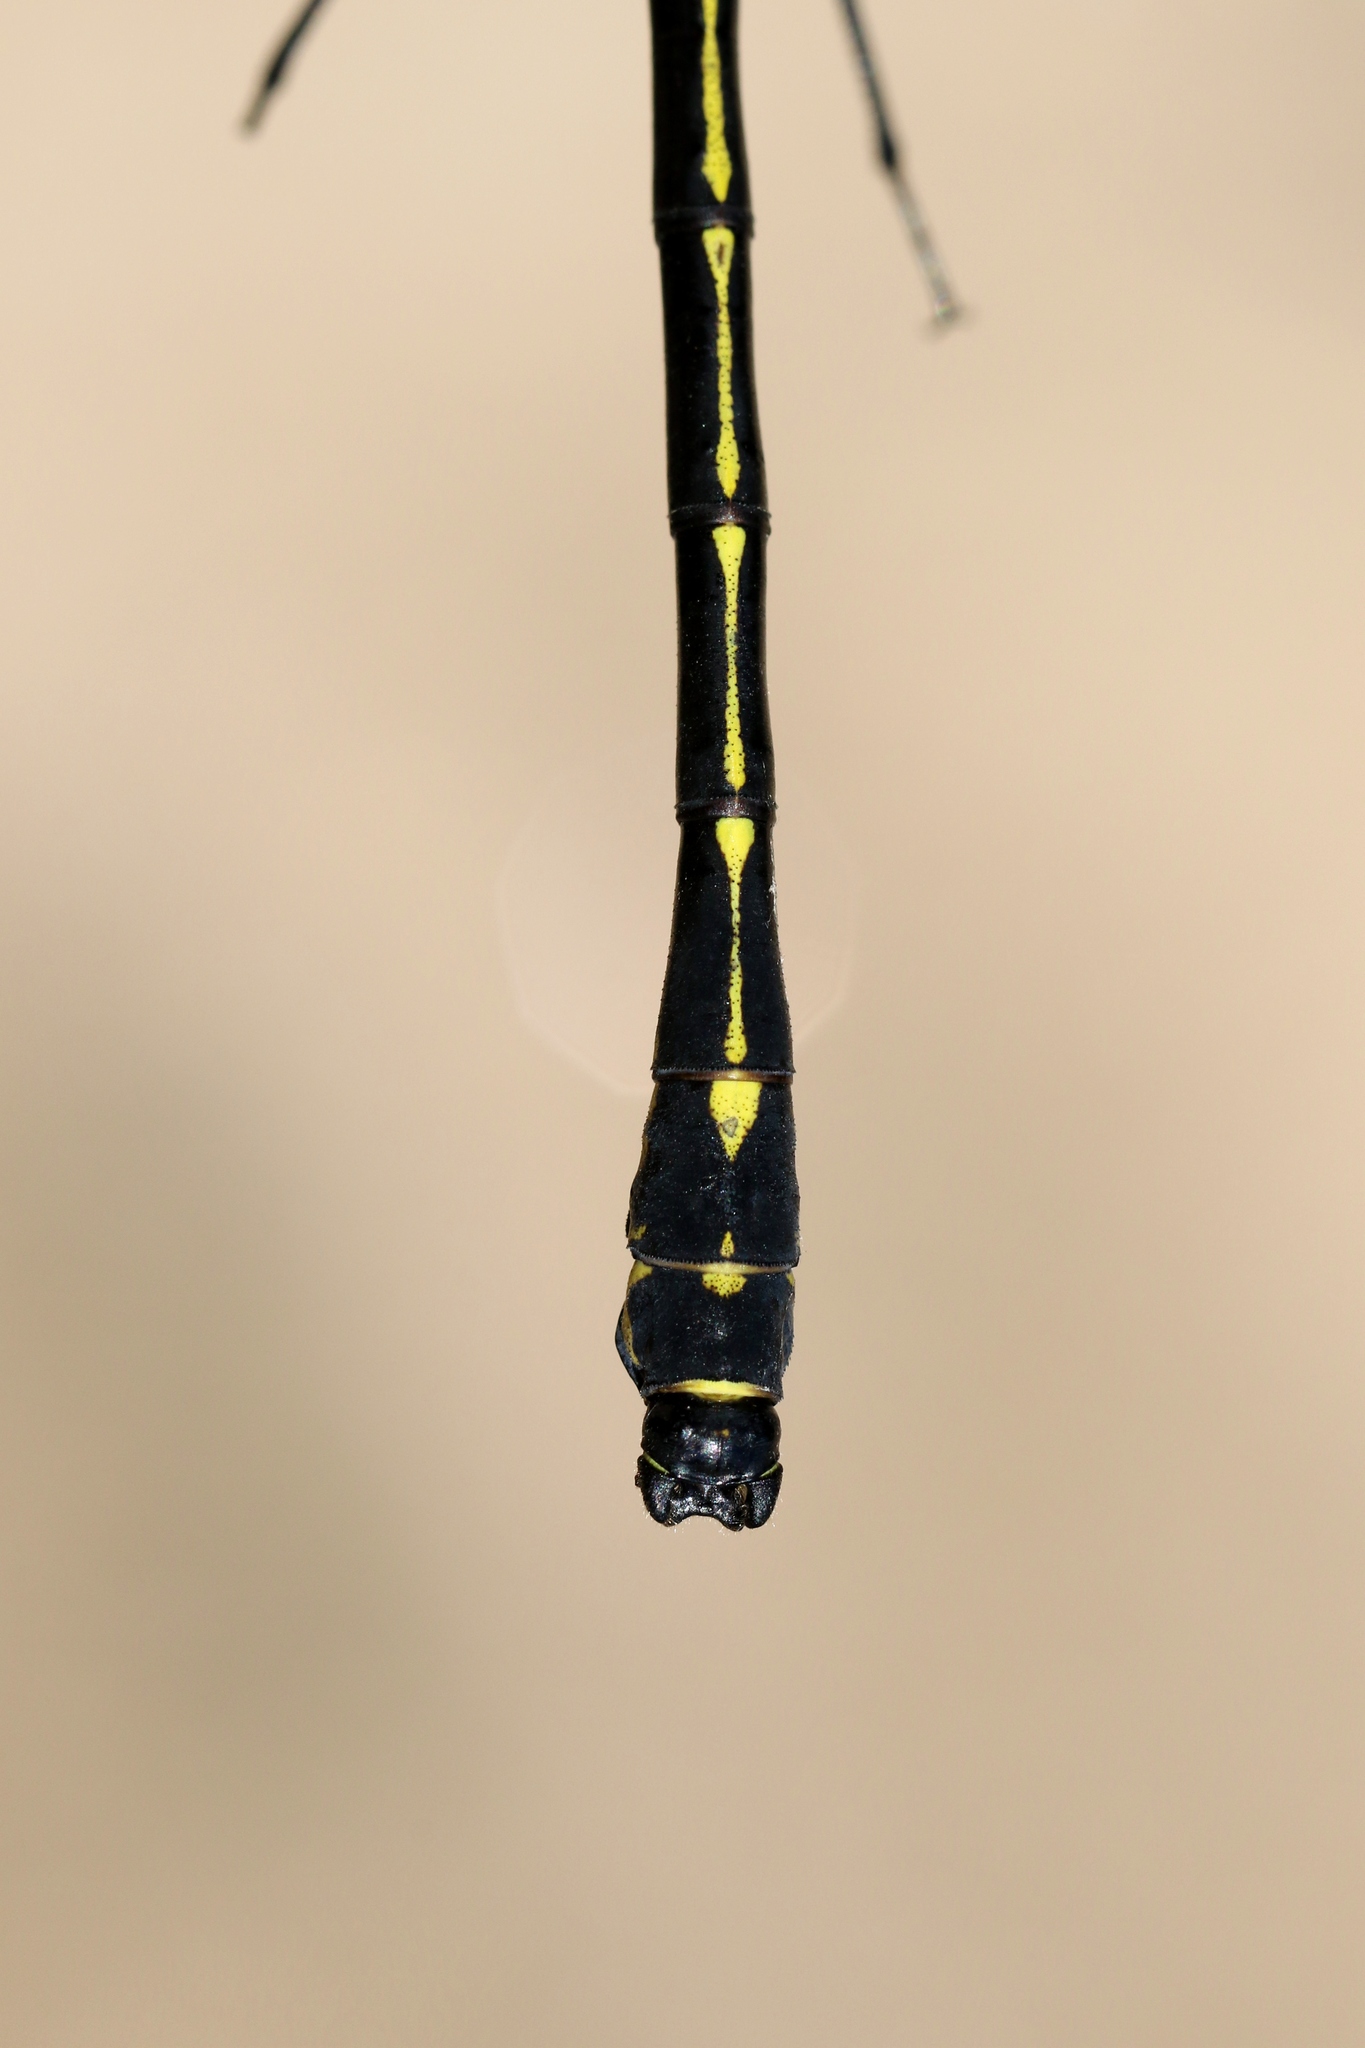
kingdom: Animalia
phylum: Arthropoda
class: Insecta
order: Odonata
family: Gomphidae
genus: Hagenius
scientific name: Hagenius brevistylus
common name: Dragonhunter
